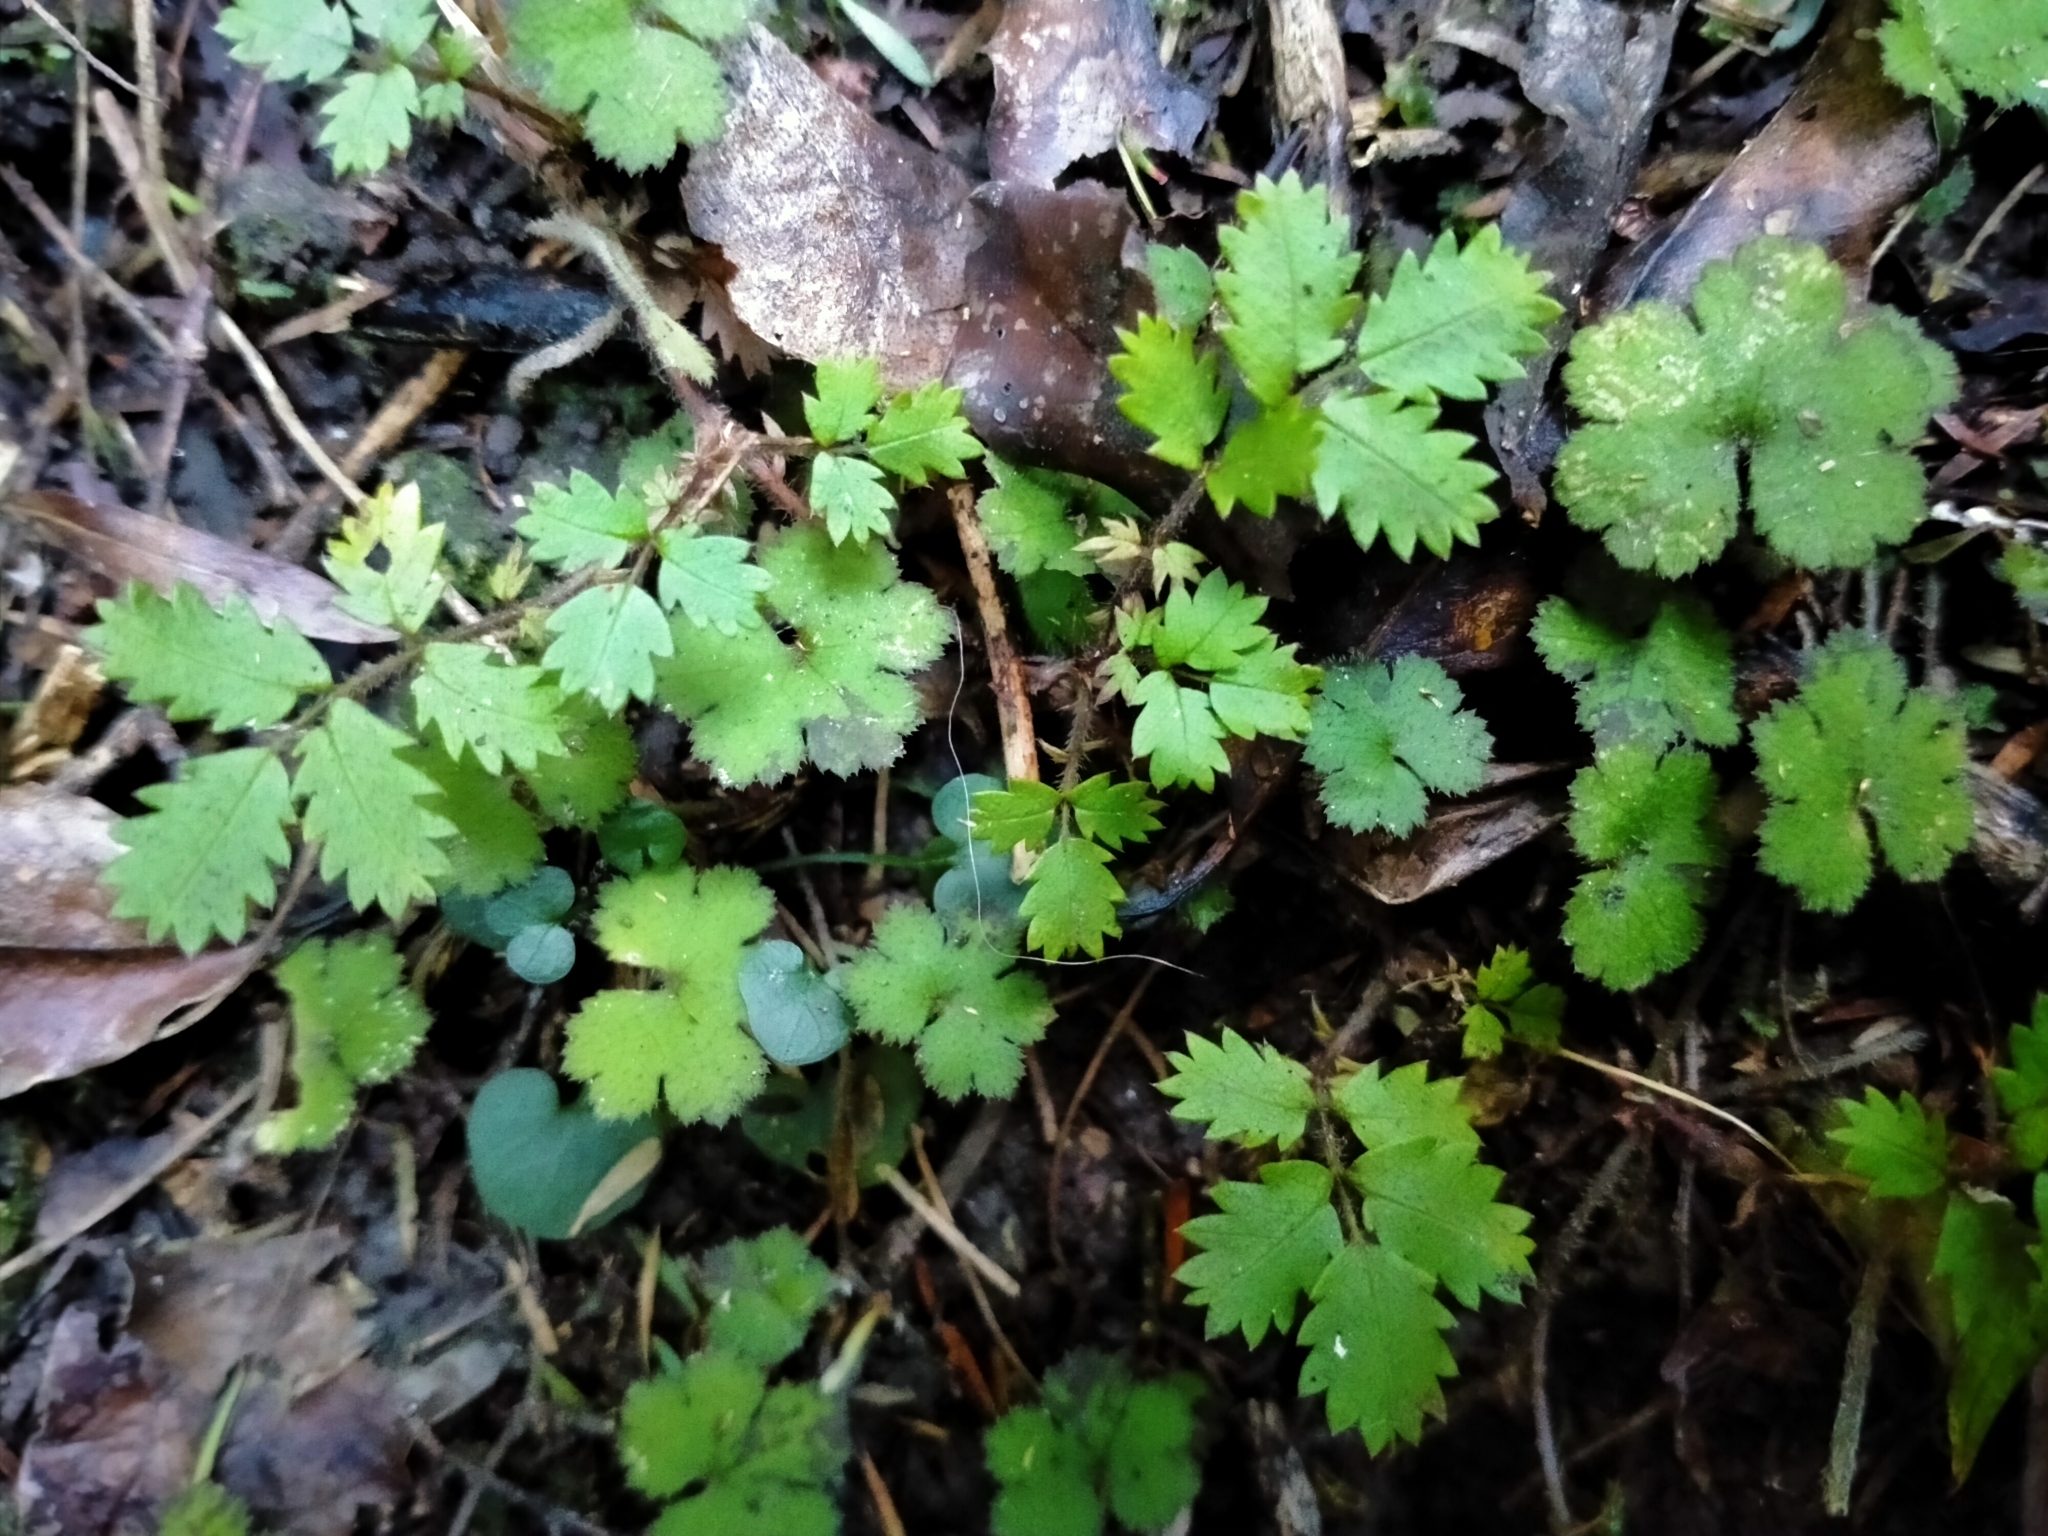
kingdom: Plantae
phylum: Tracheophyta
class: Magnoliopsida
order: Rosales
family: Rosaceae
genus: Acaena
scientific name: Acaena juvenca
